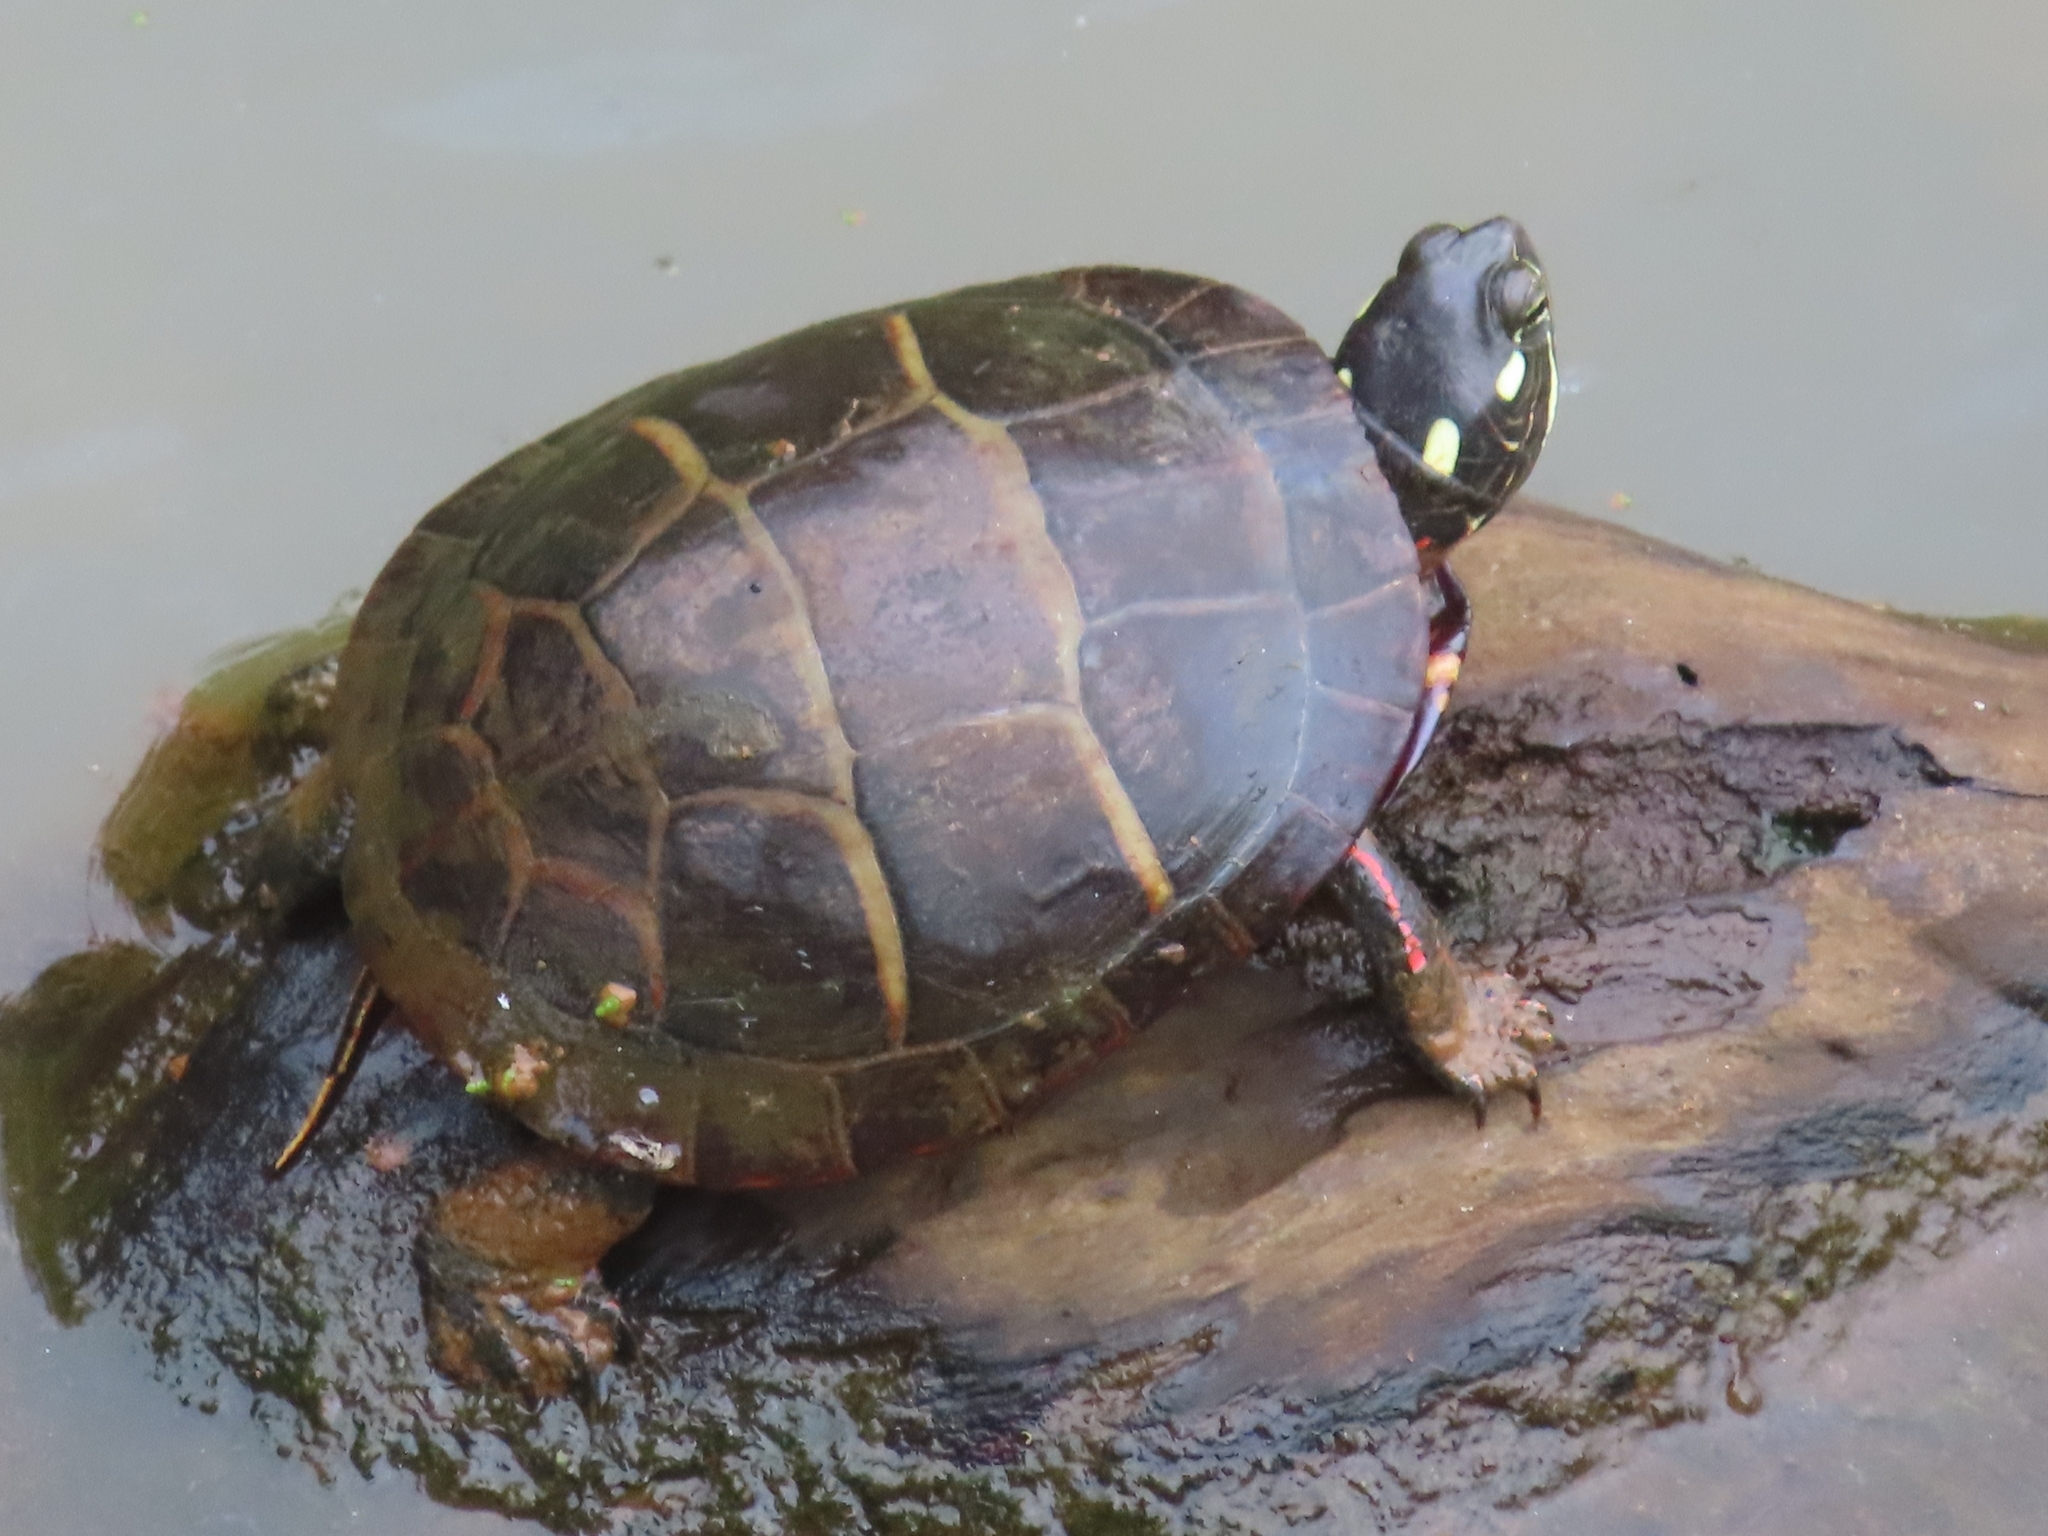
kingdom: Animalia
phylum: Chordata
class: Testudines
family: Emydidae
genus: Chrysemys
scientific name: Chrysemys picta
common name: Painted turtle
